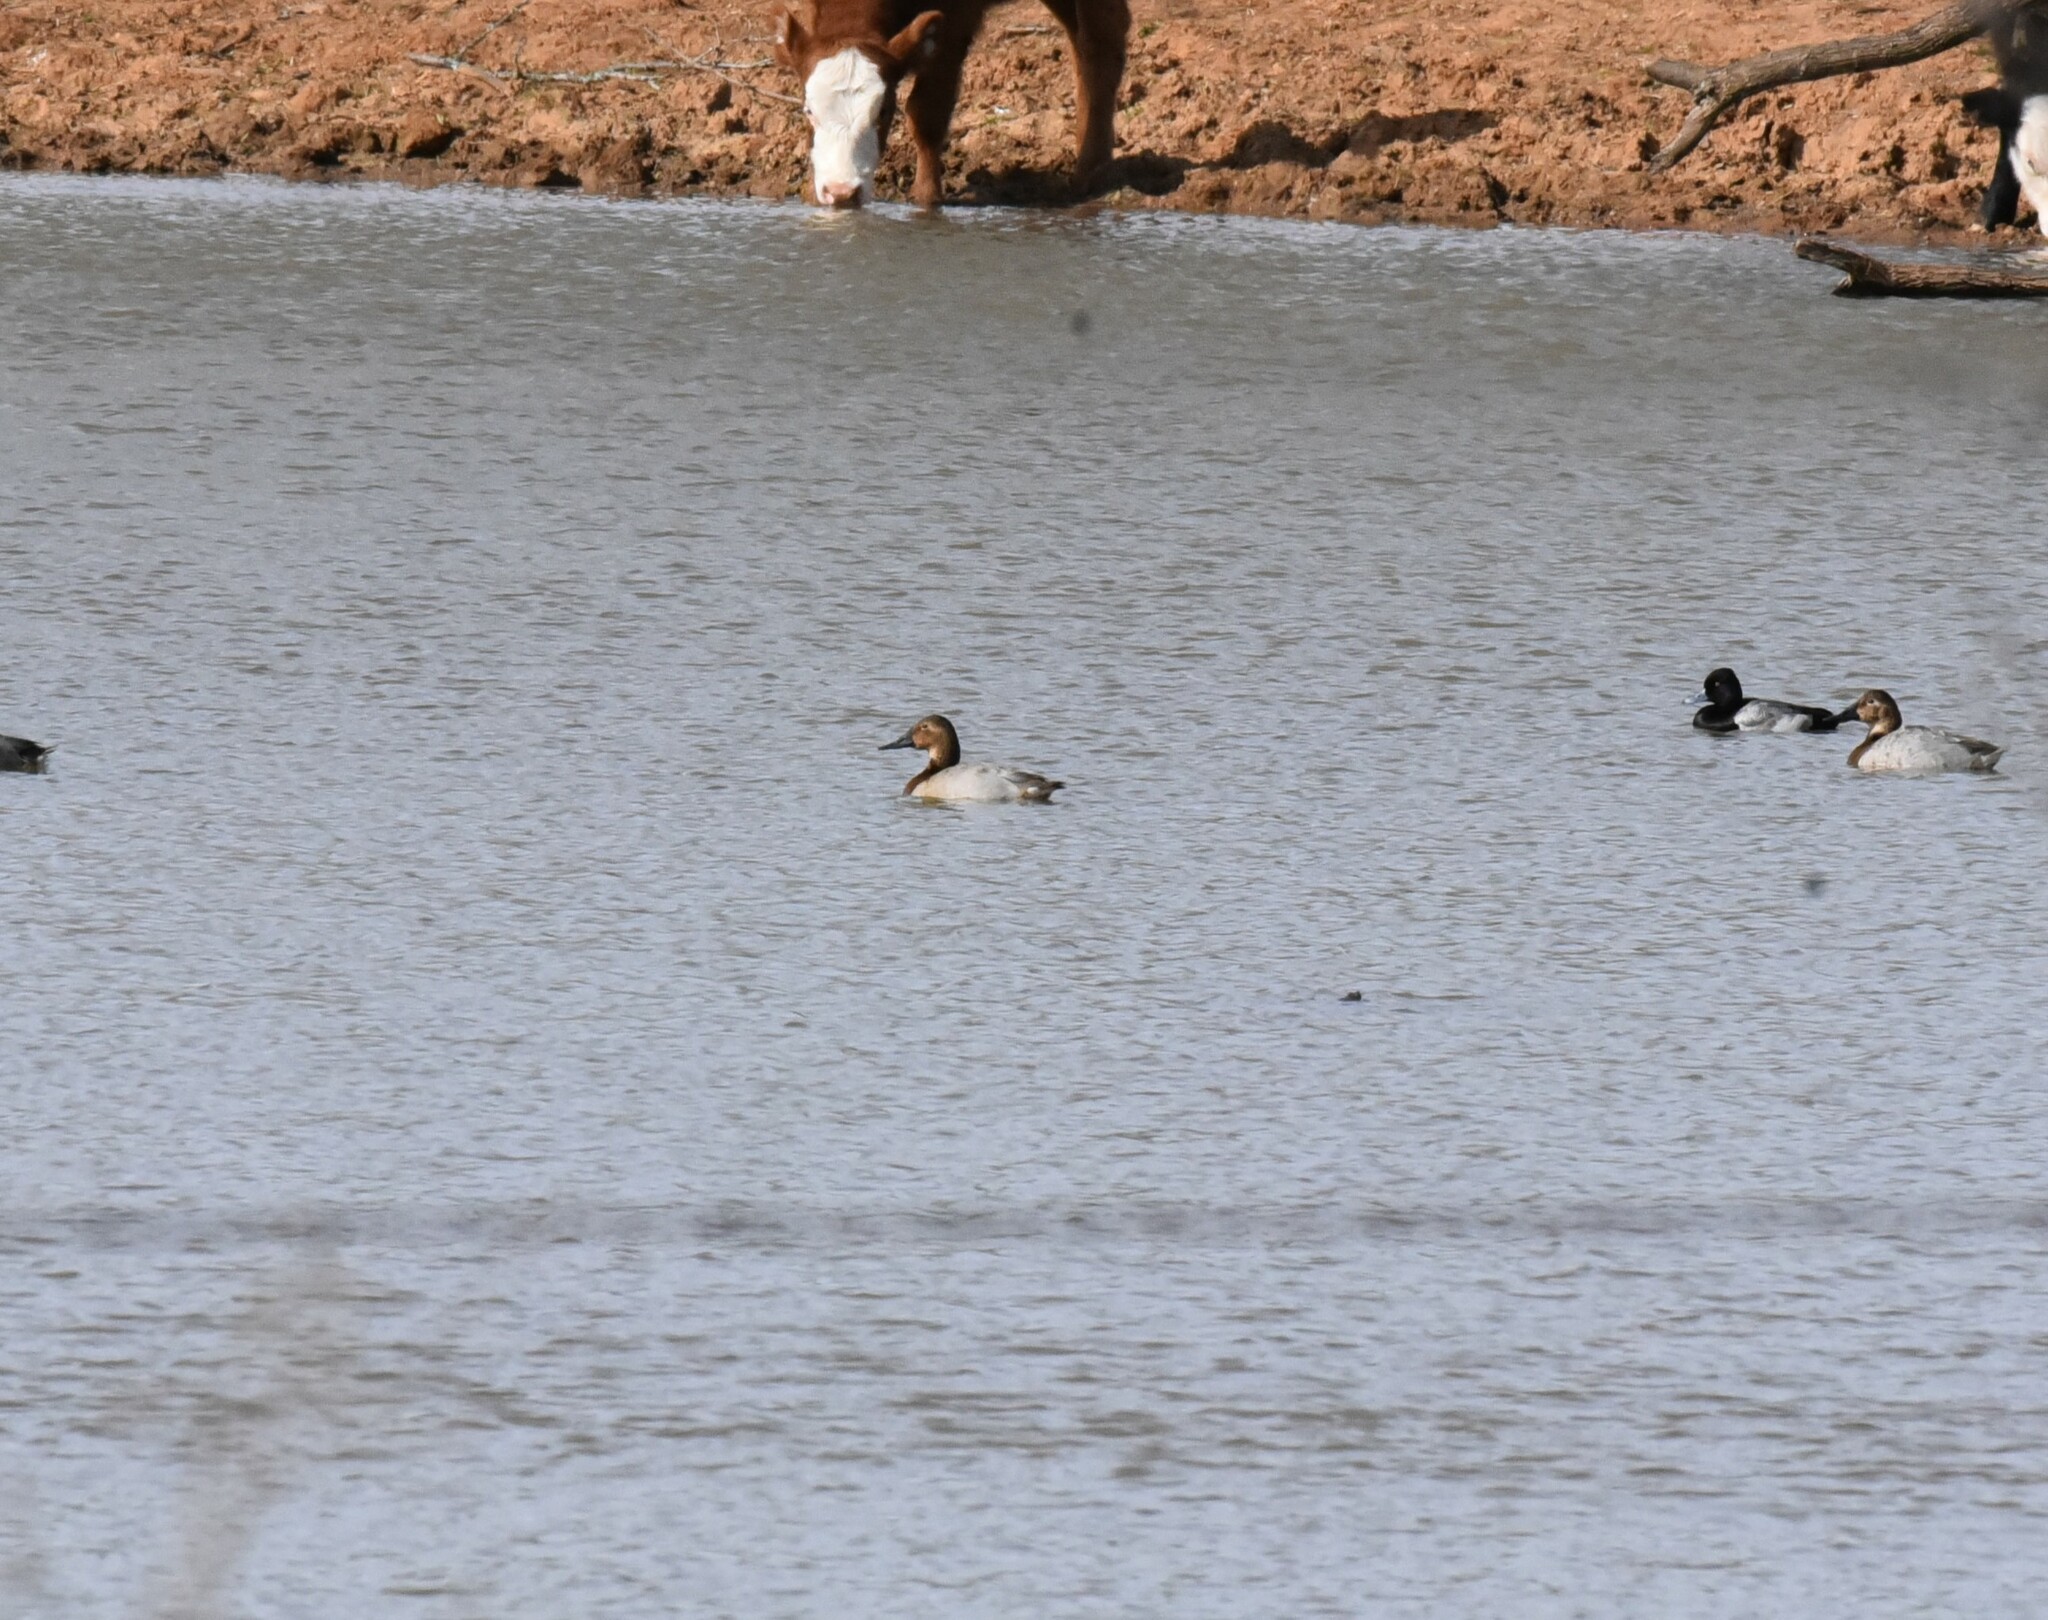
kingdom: Animalia
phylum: Chordata
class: Aves
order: Anseriformes
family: Anatidae
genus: Aythya
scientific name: Aythya valisineria
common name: Canvasback
